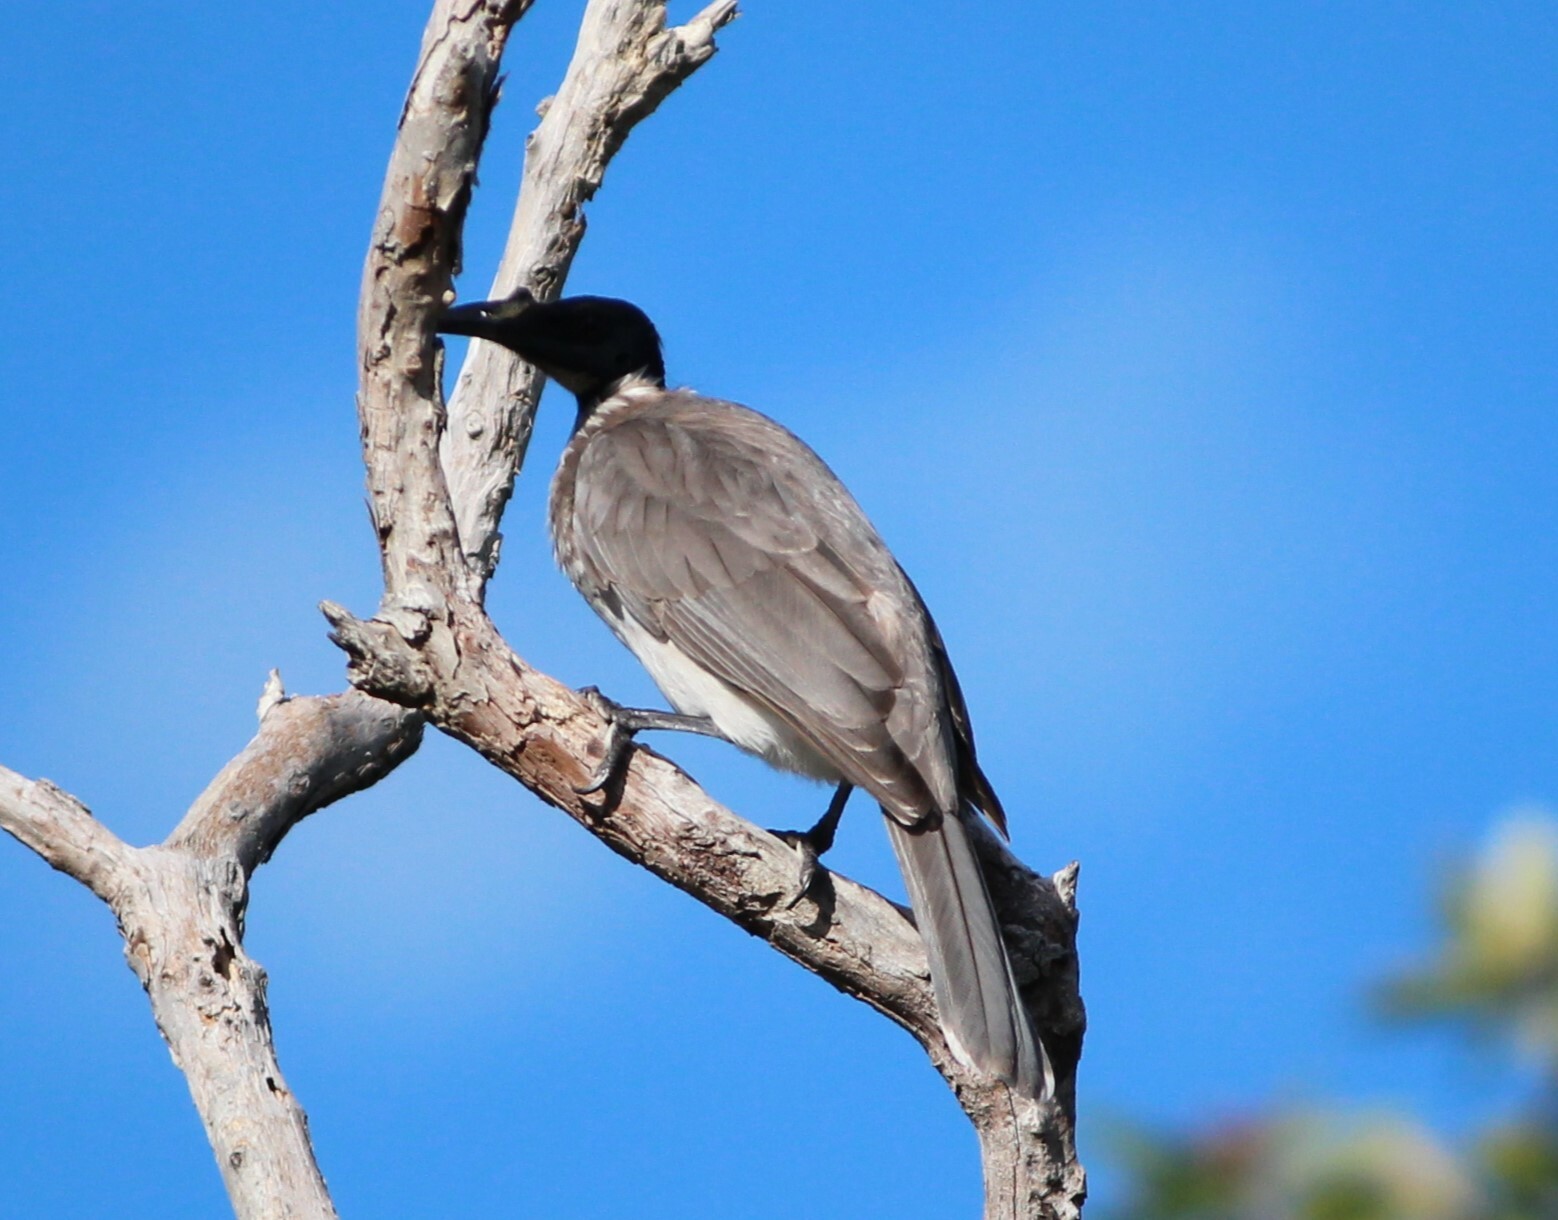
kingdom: Animalia
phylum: Chordata
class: Aves
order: Passeriformes
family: Meliphagidae
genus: Philemon
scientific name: Philemon corniculatus
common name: Noisy friarbird
